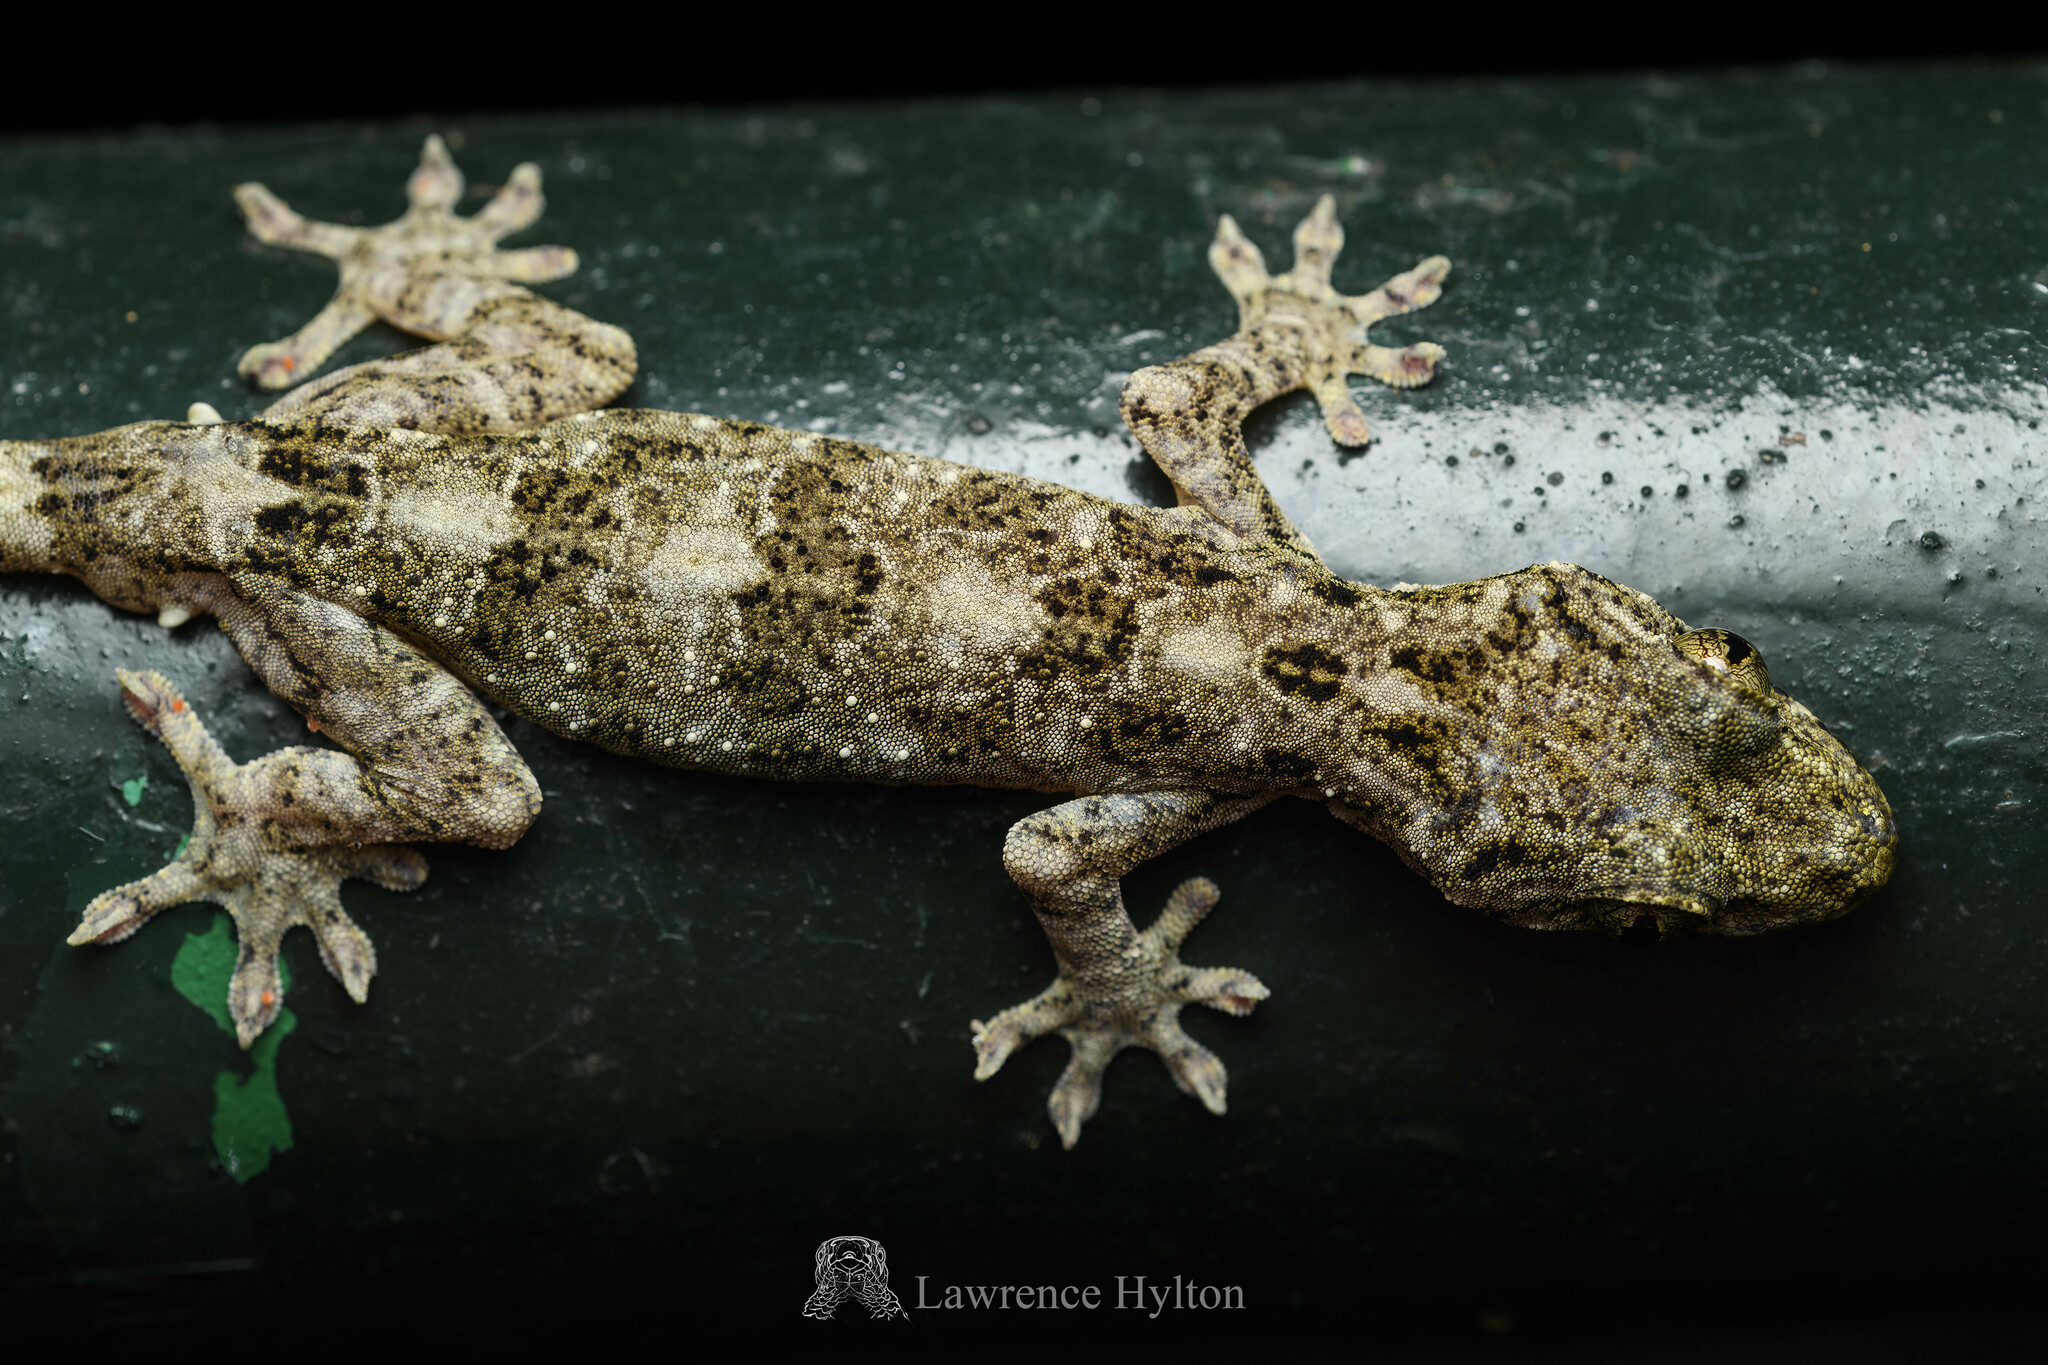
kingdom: Animalia
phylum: Chordata
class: Squamata
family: Gekkonidae
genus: Gekko
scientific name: Gekko chinensis
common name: Gray's chinese gecko
